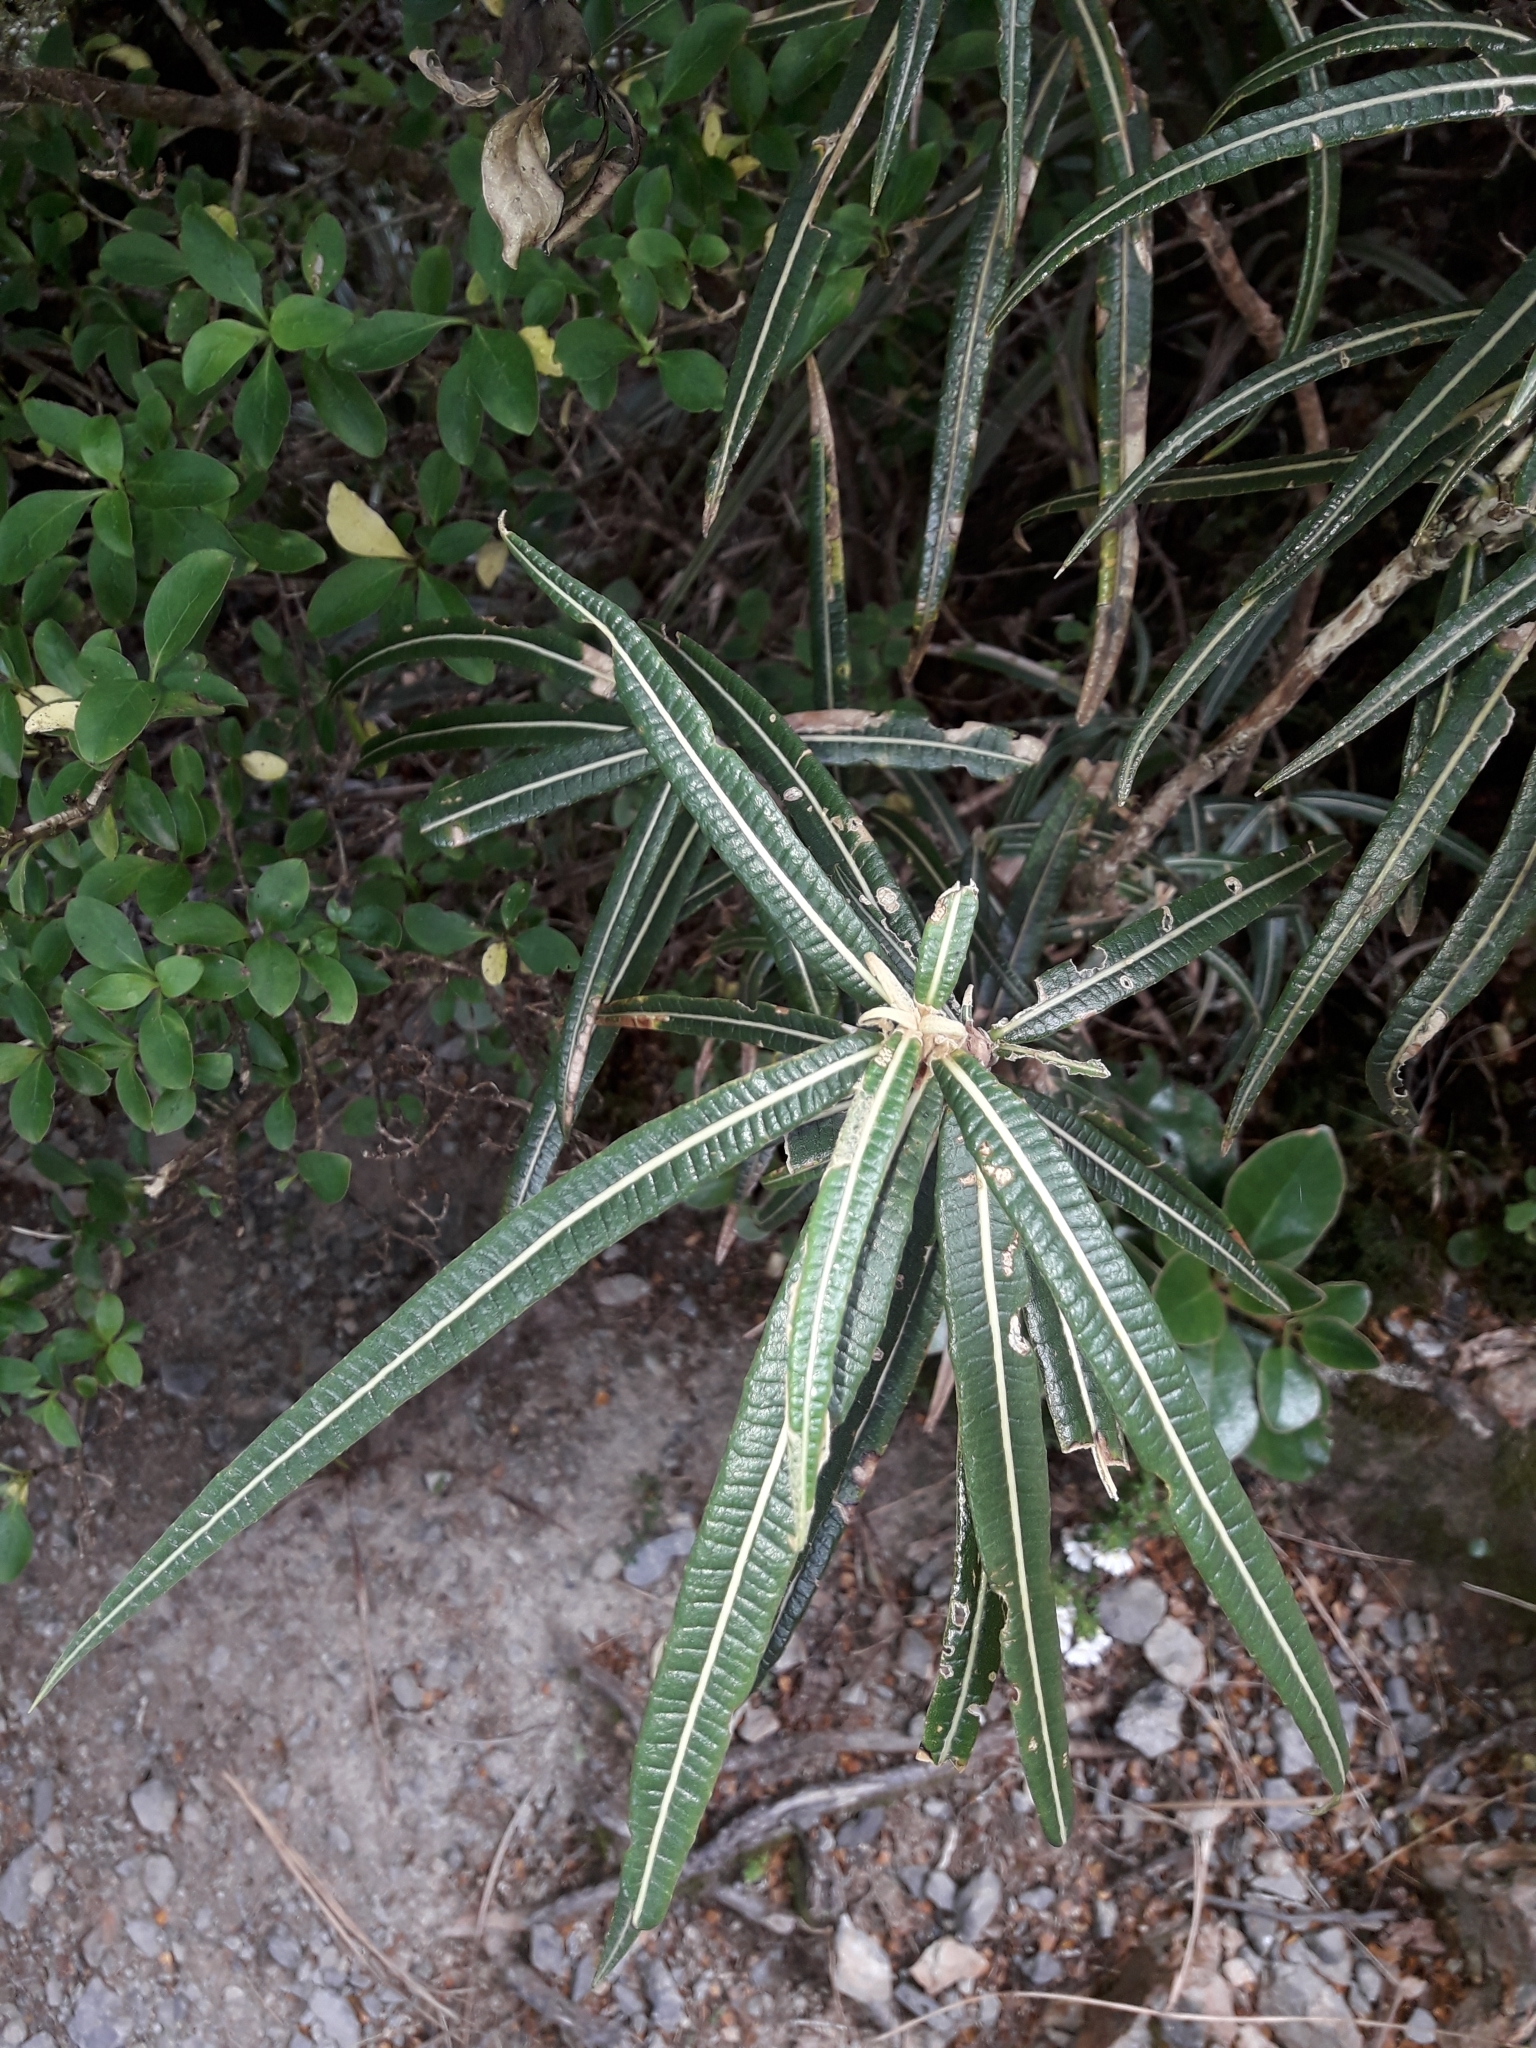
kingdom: Plantae
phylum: Tracheophyta
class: Magnoliopsida
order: Asterales
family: Asteraceae
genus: Olearia
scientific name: Olearia lacunosa
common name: Lancewood tree daisy
